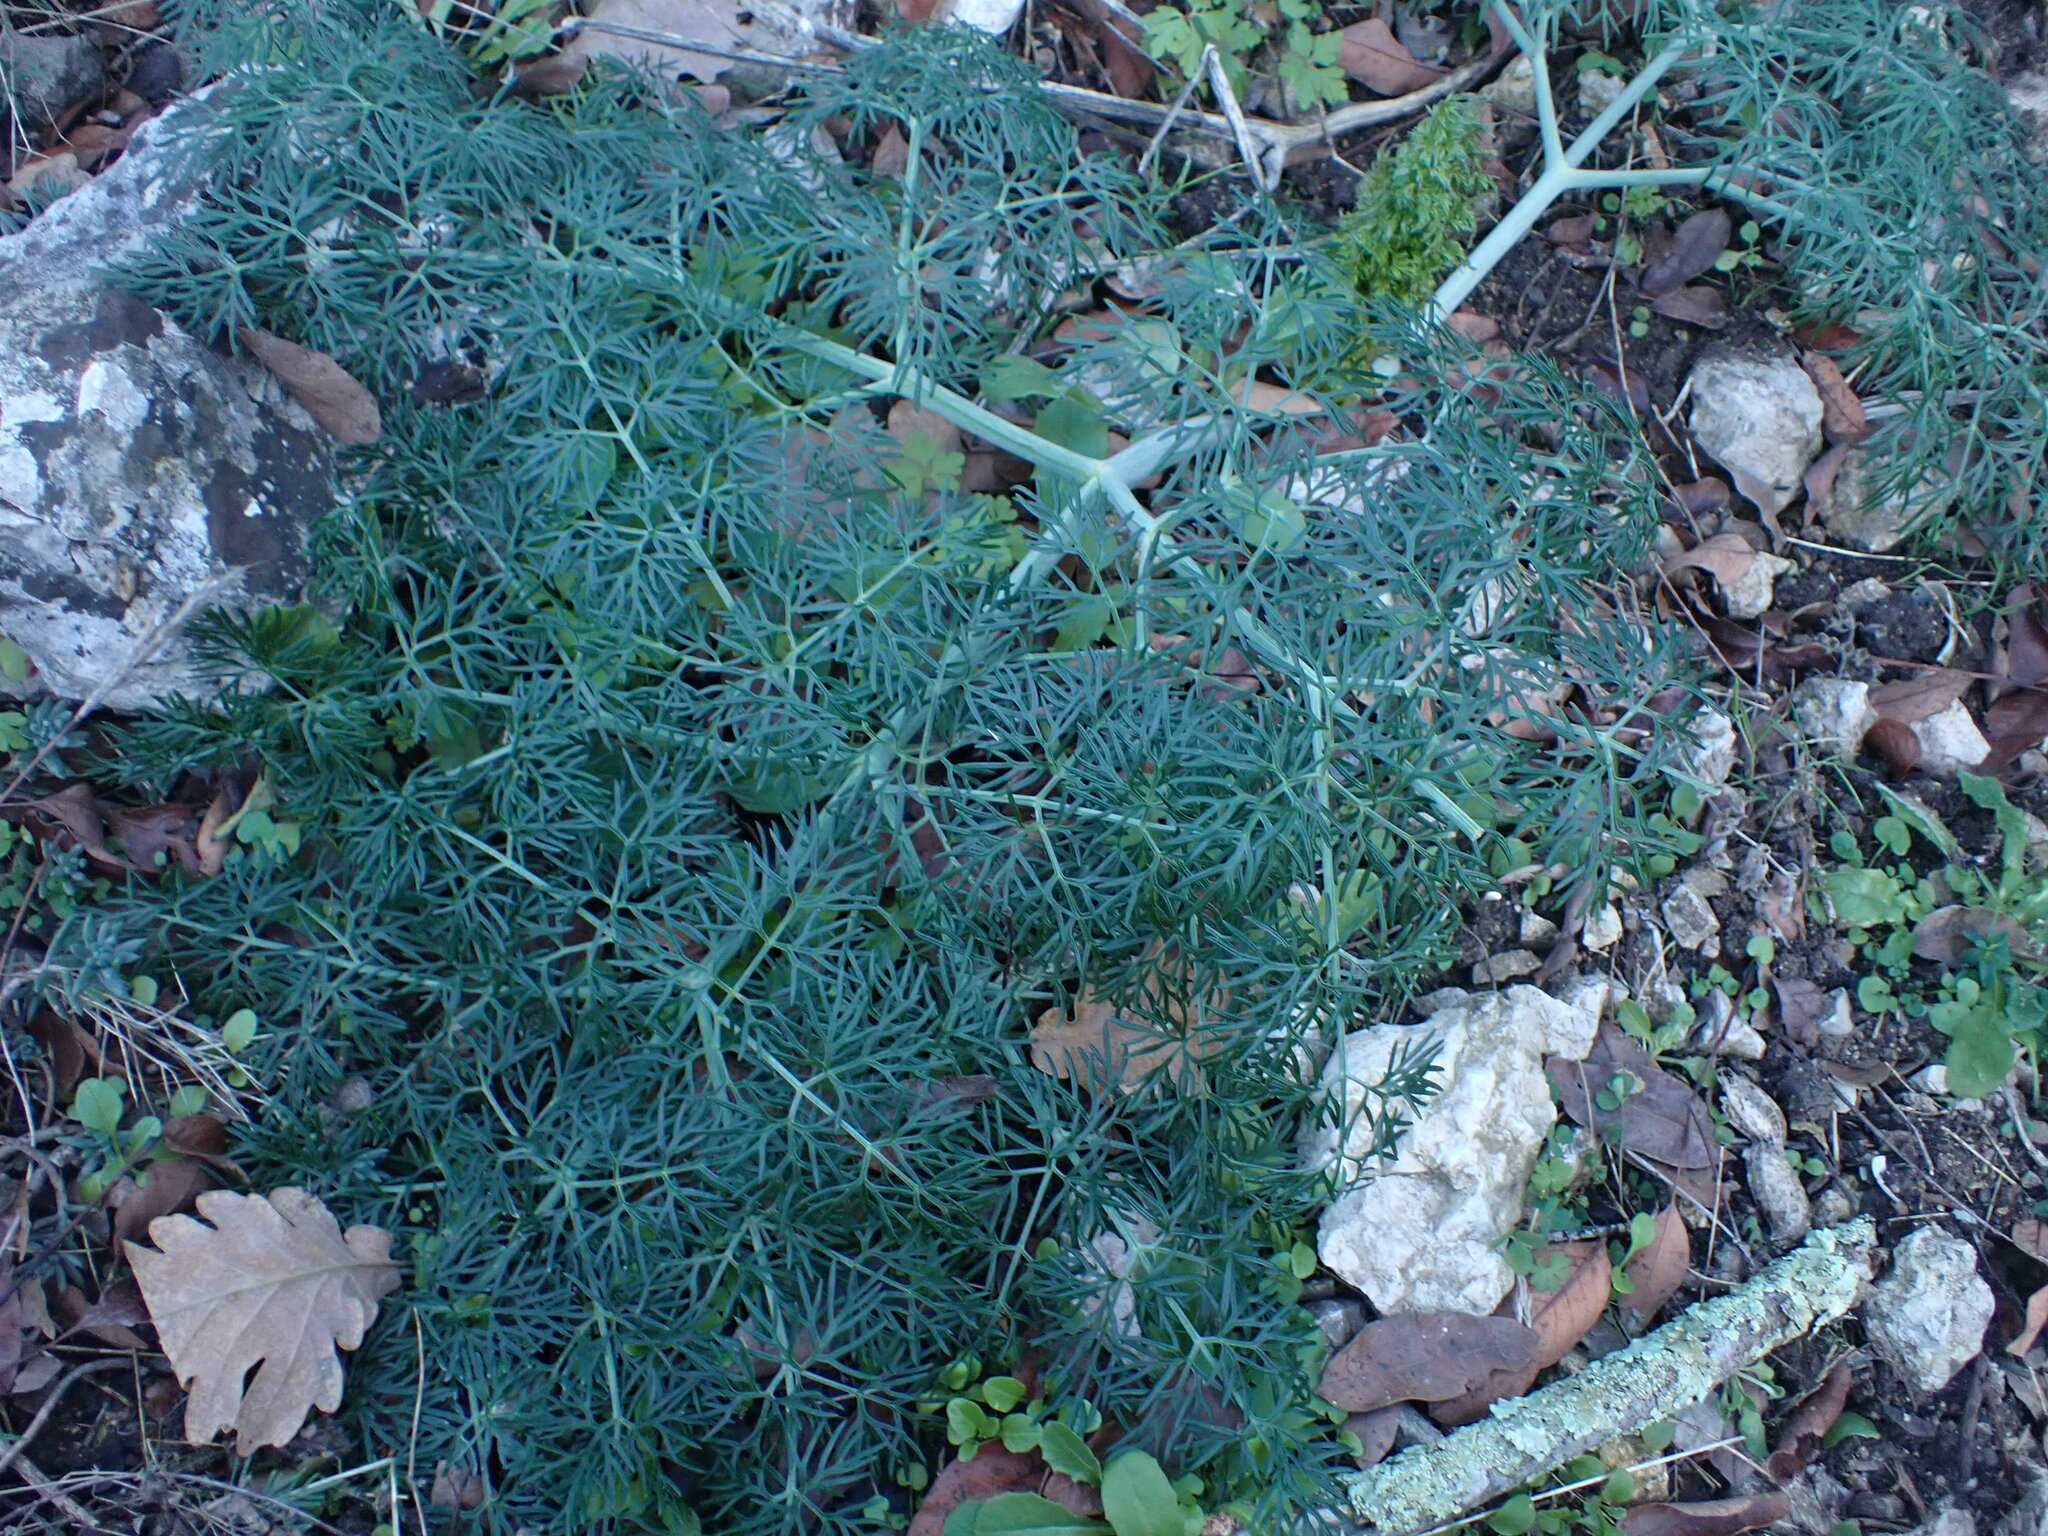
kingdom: Plantae
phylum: Tracheophyta
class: Magnoliopsida
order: Apiales
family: Apiaceae
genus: Ferula
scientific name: Ferula glauca
